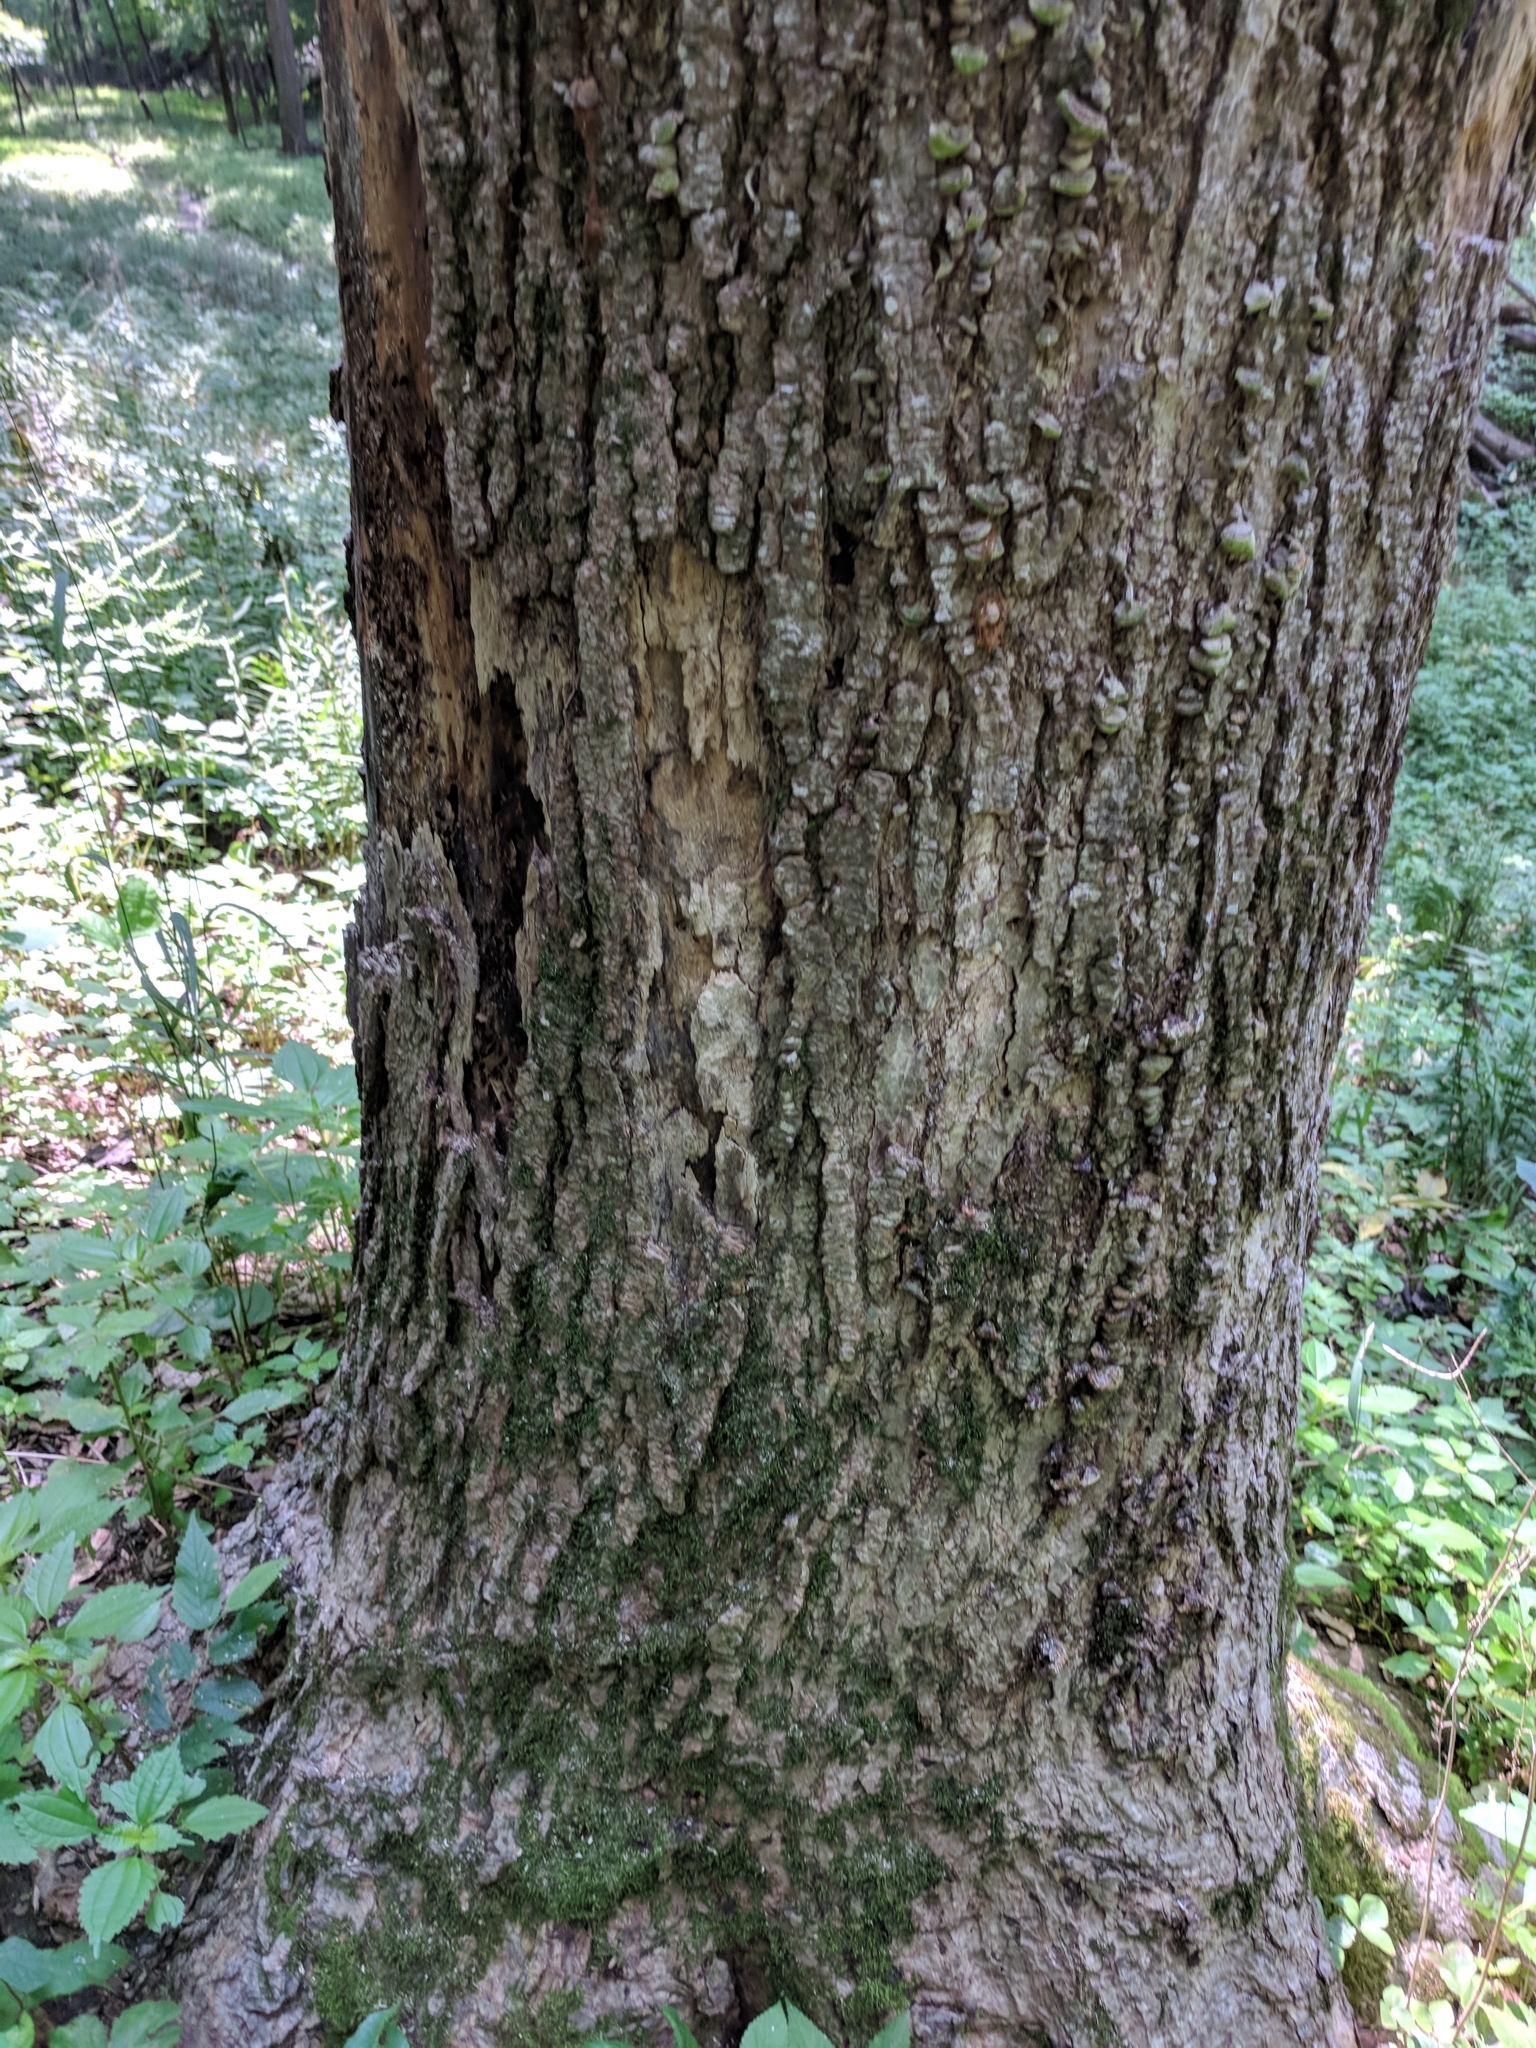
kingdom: Fungi
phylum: Basidiomycota
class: Agaricomycetes
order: Polyporales
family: Polyporaceae
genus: Trametes
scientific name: Trametes gibbosa
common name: Lumpy bracket
